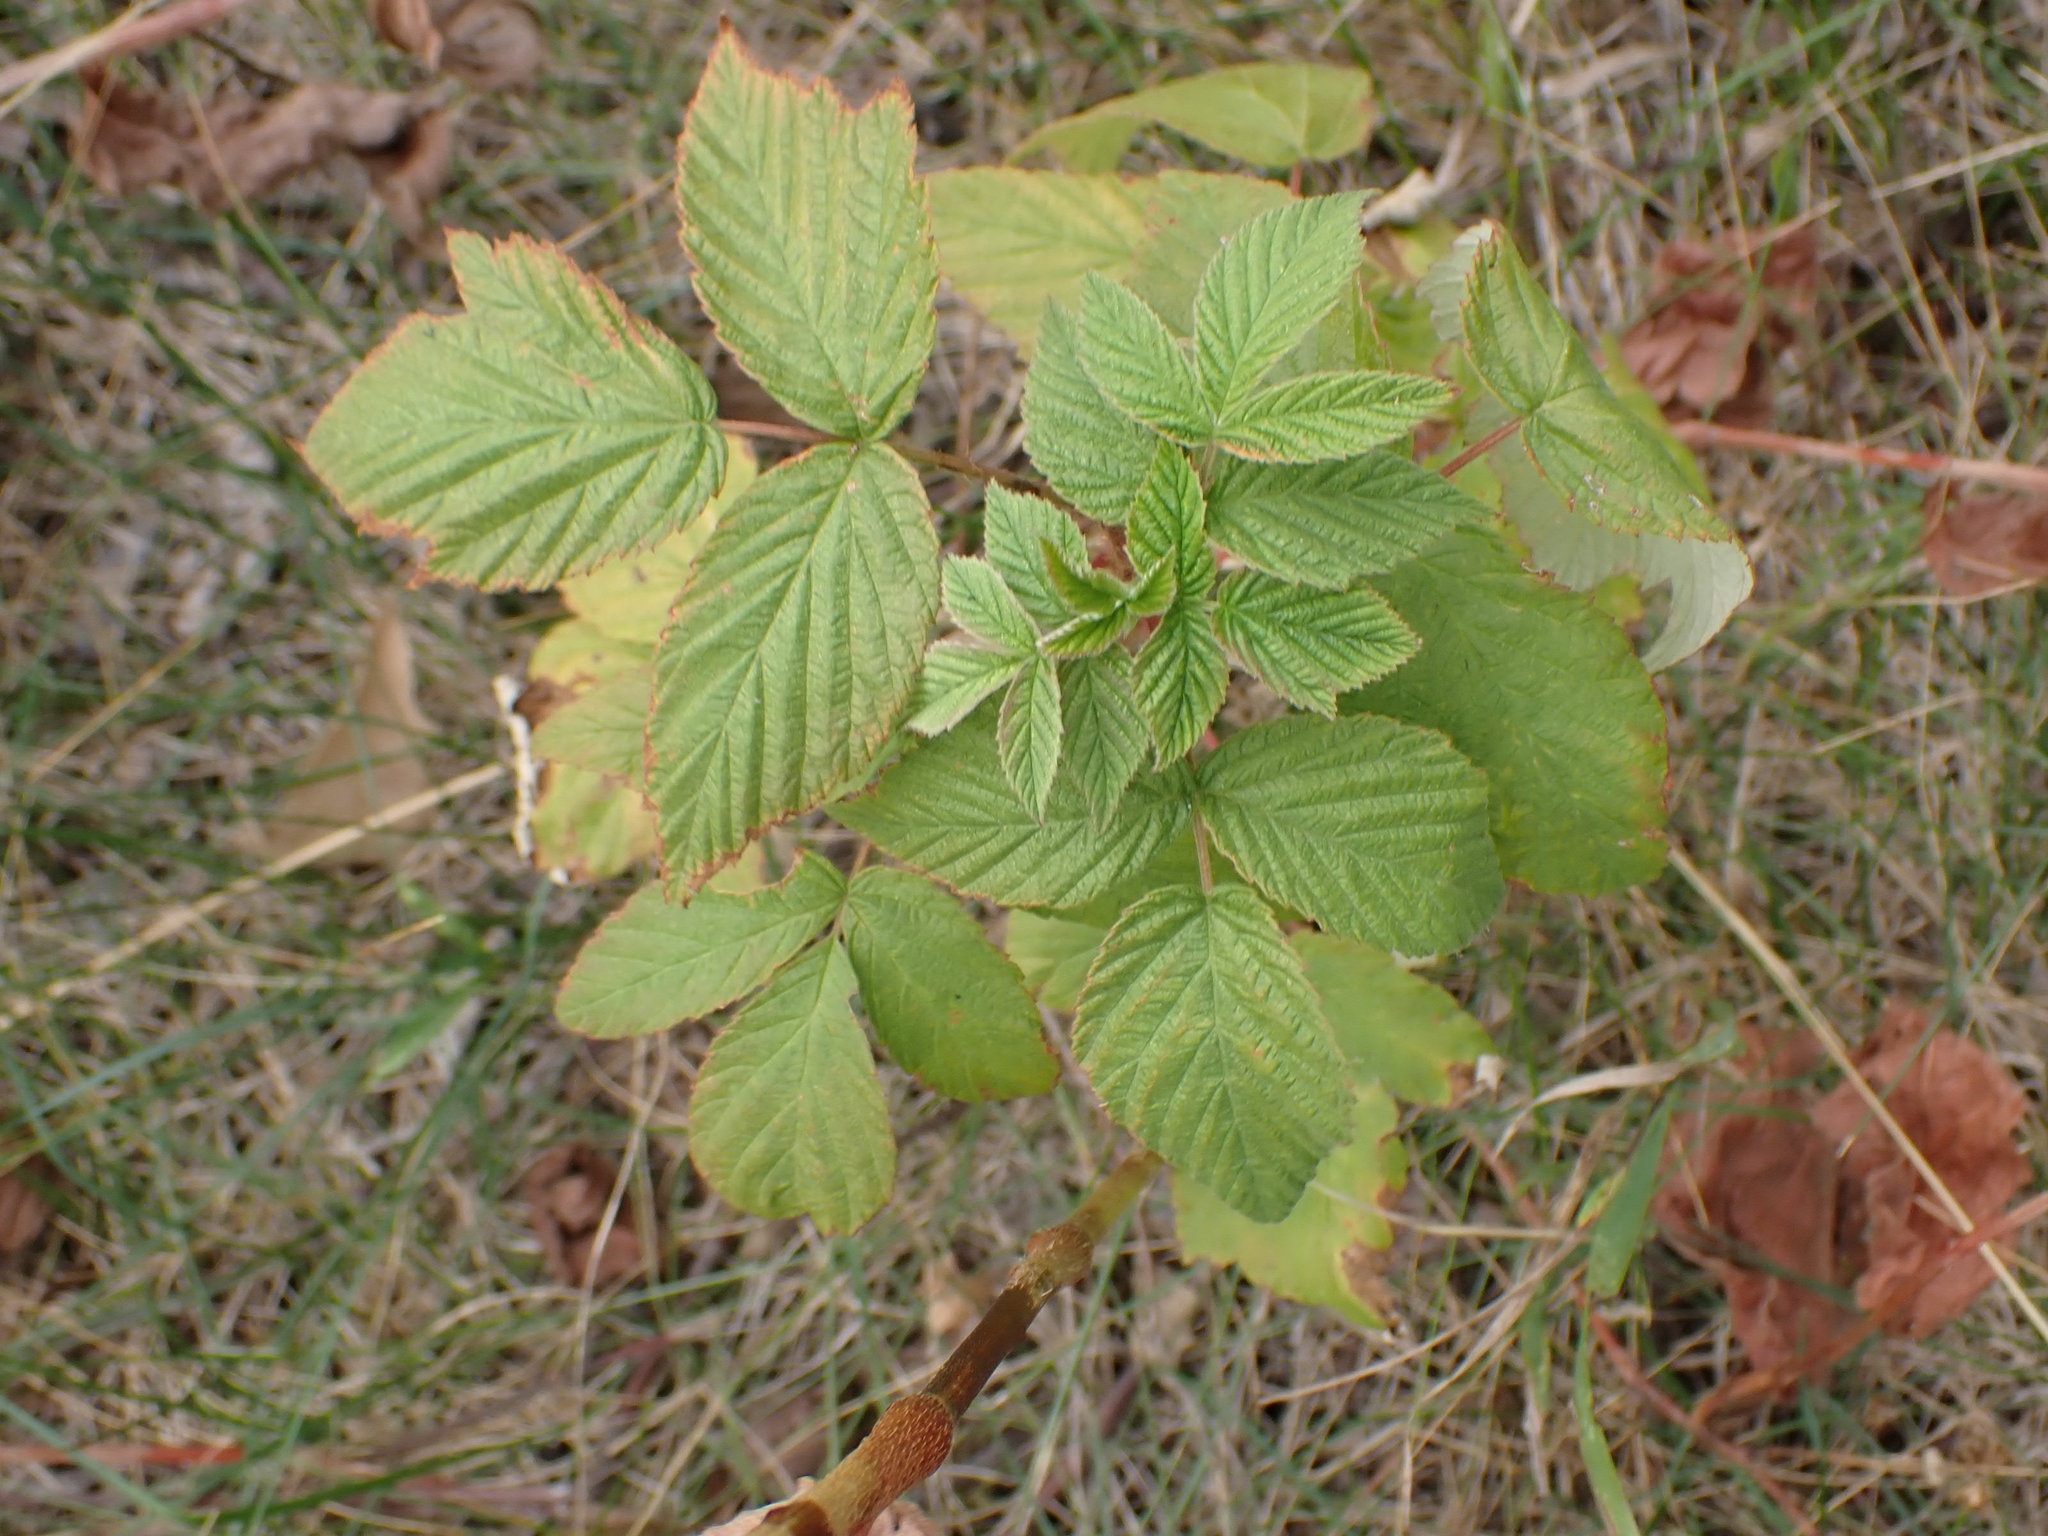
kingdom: Plantae
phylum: Tracheophyta
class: Magnoliopsida
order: Rosales
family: Rosaceae
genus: Rubus
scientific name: Rubus idaeus
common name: Raspberry
